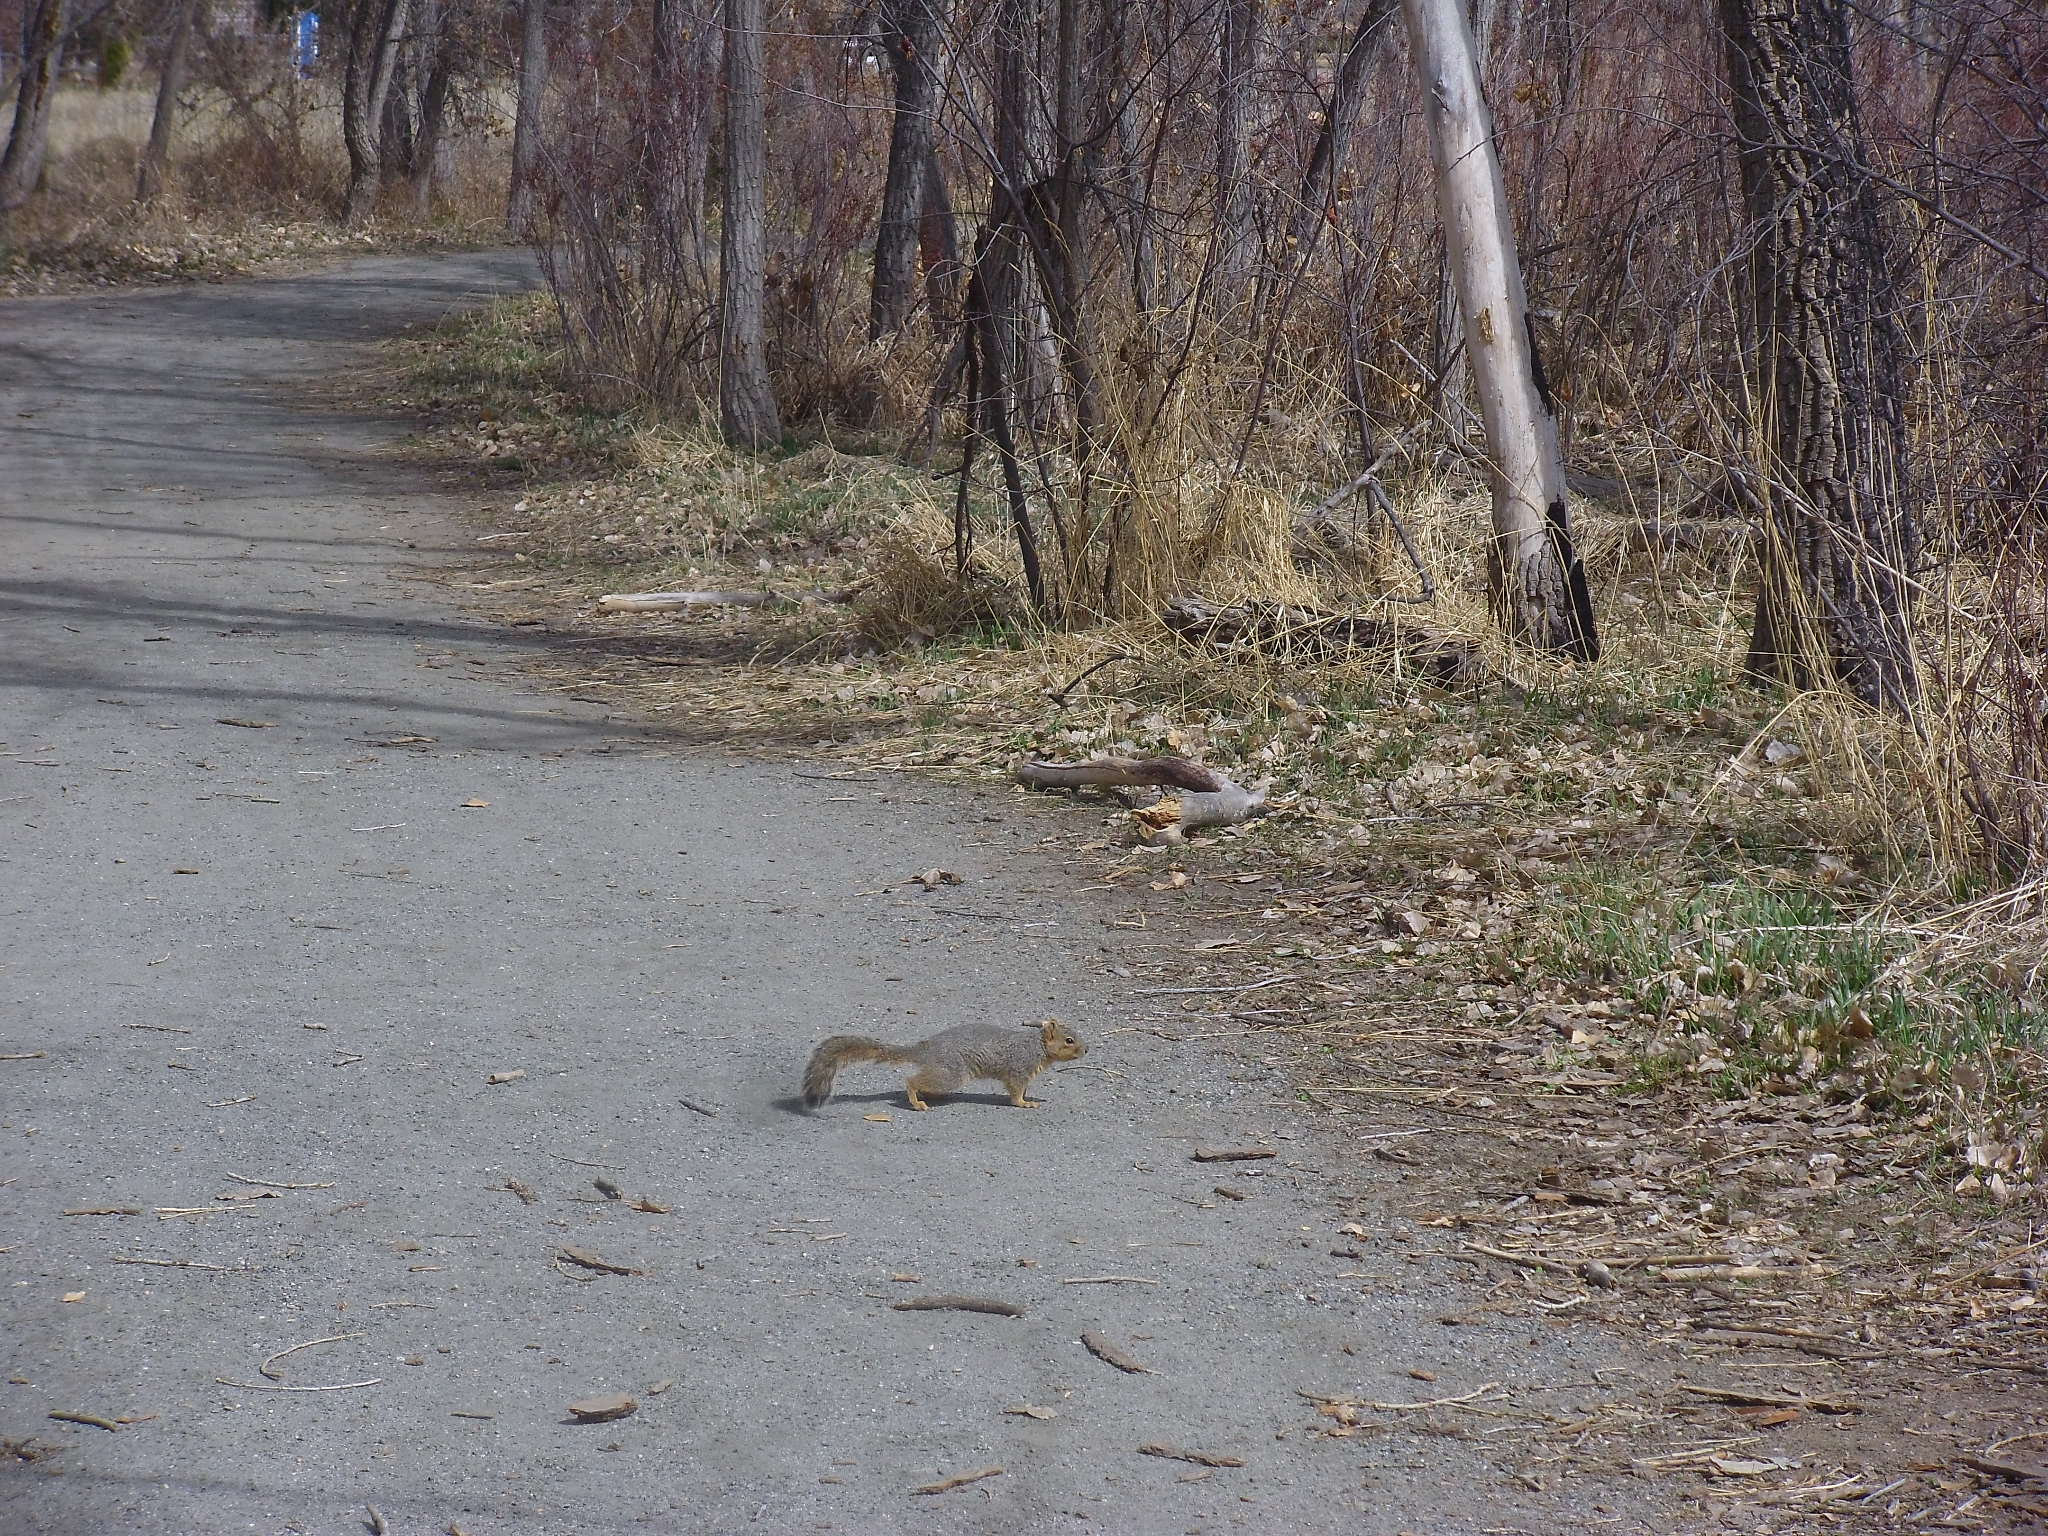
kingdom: Animalia
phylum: Chordata
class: Mammalia
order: Rodentia
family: Sciuridae
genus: Sciurus
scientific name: Sciurus niger
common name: Fox squirrel
